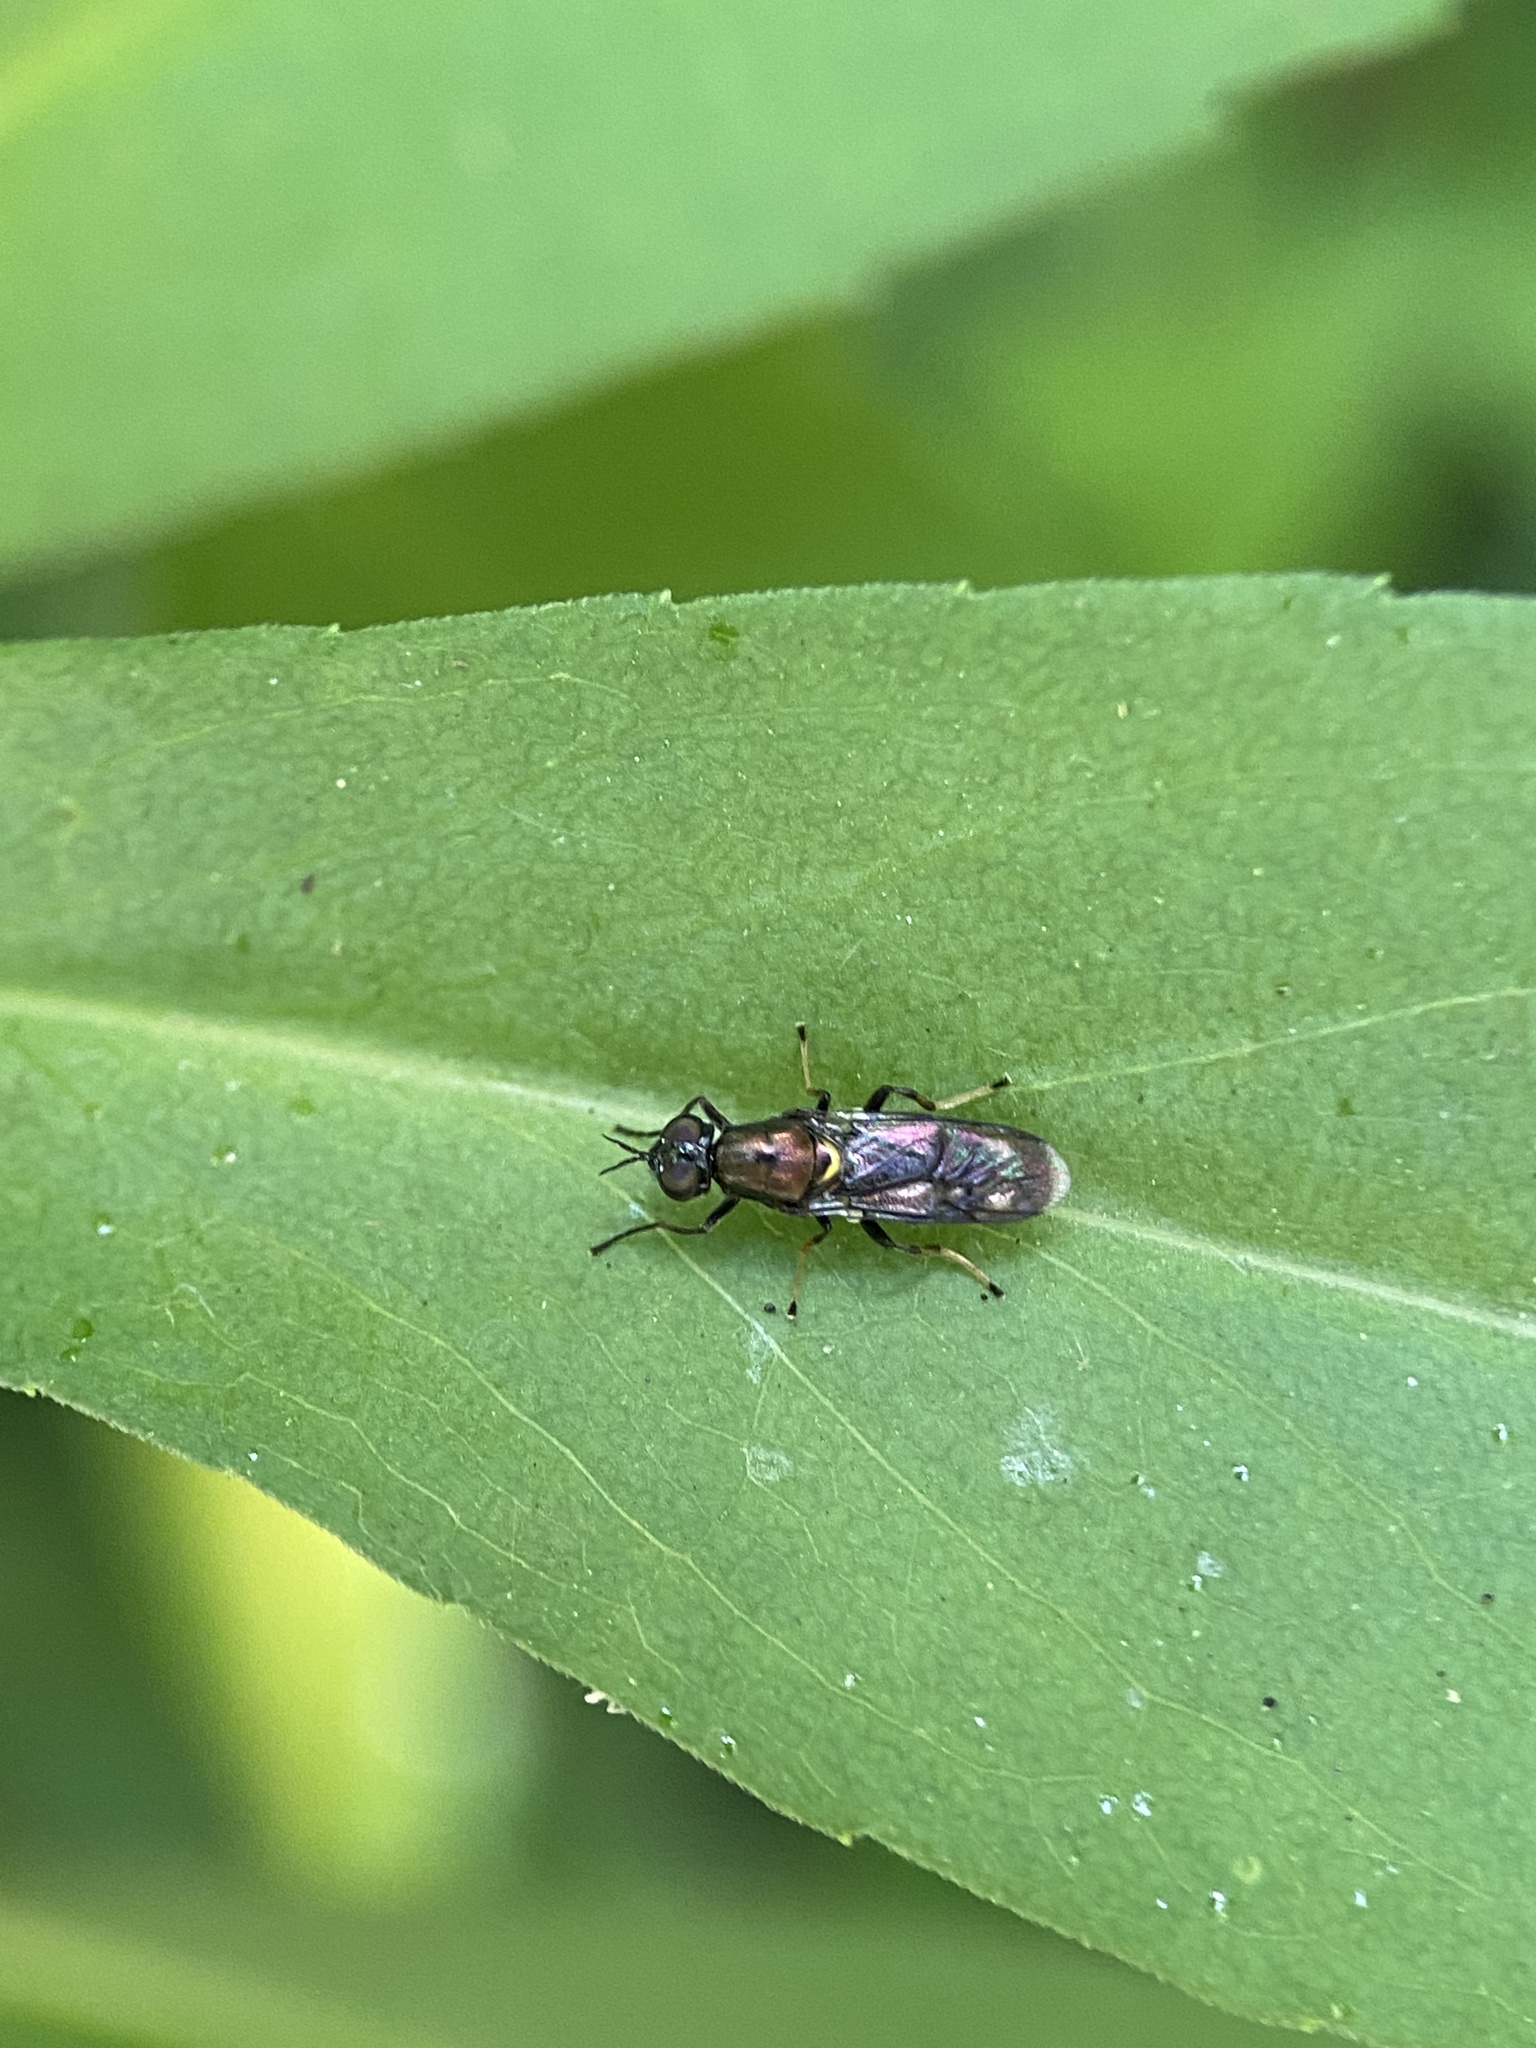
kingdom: Animalia
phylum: Arthropoda
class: Insecta
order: Diptera
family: Stratiomyidae
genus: Myxosargus
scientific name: Myxosargus nigricormis
